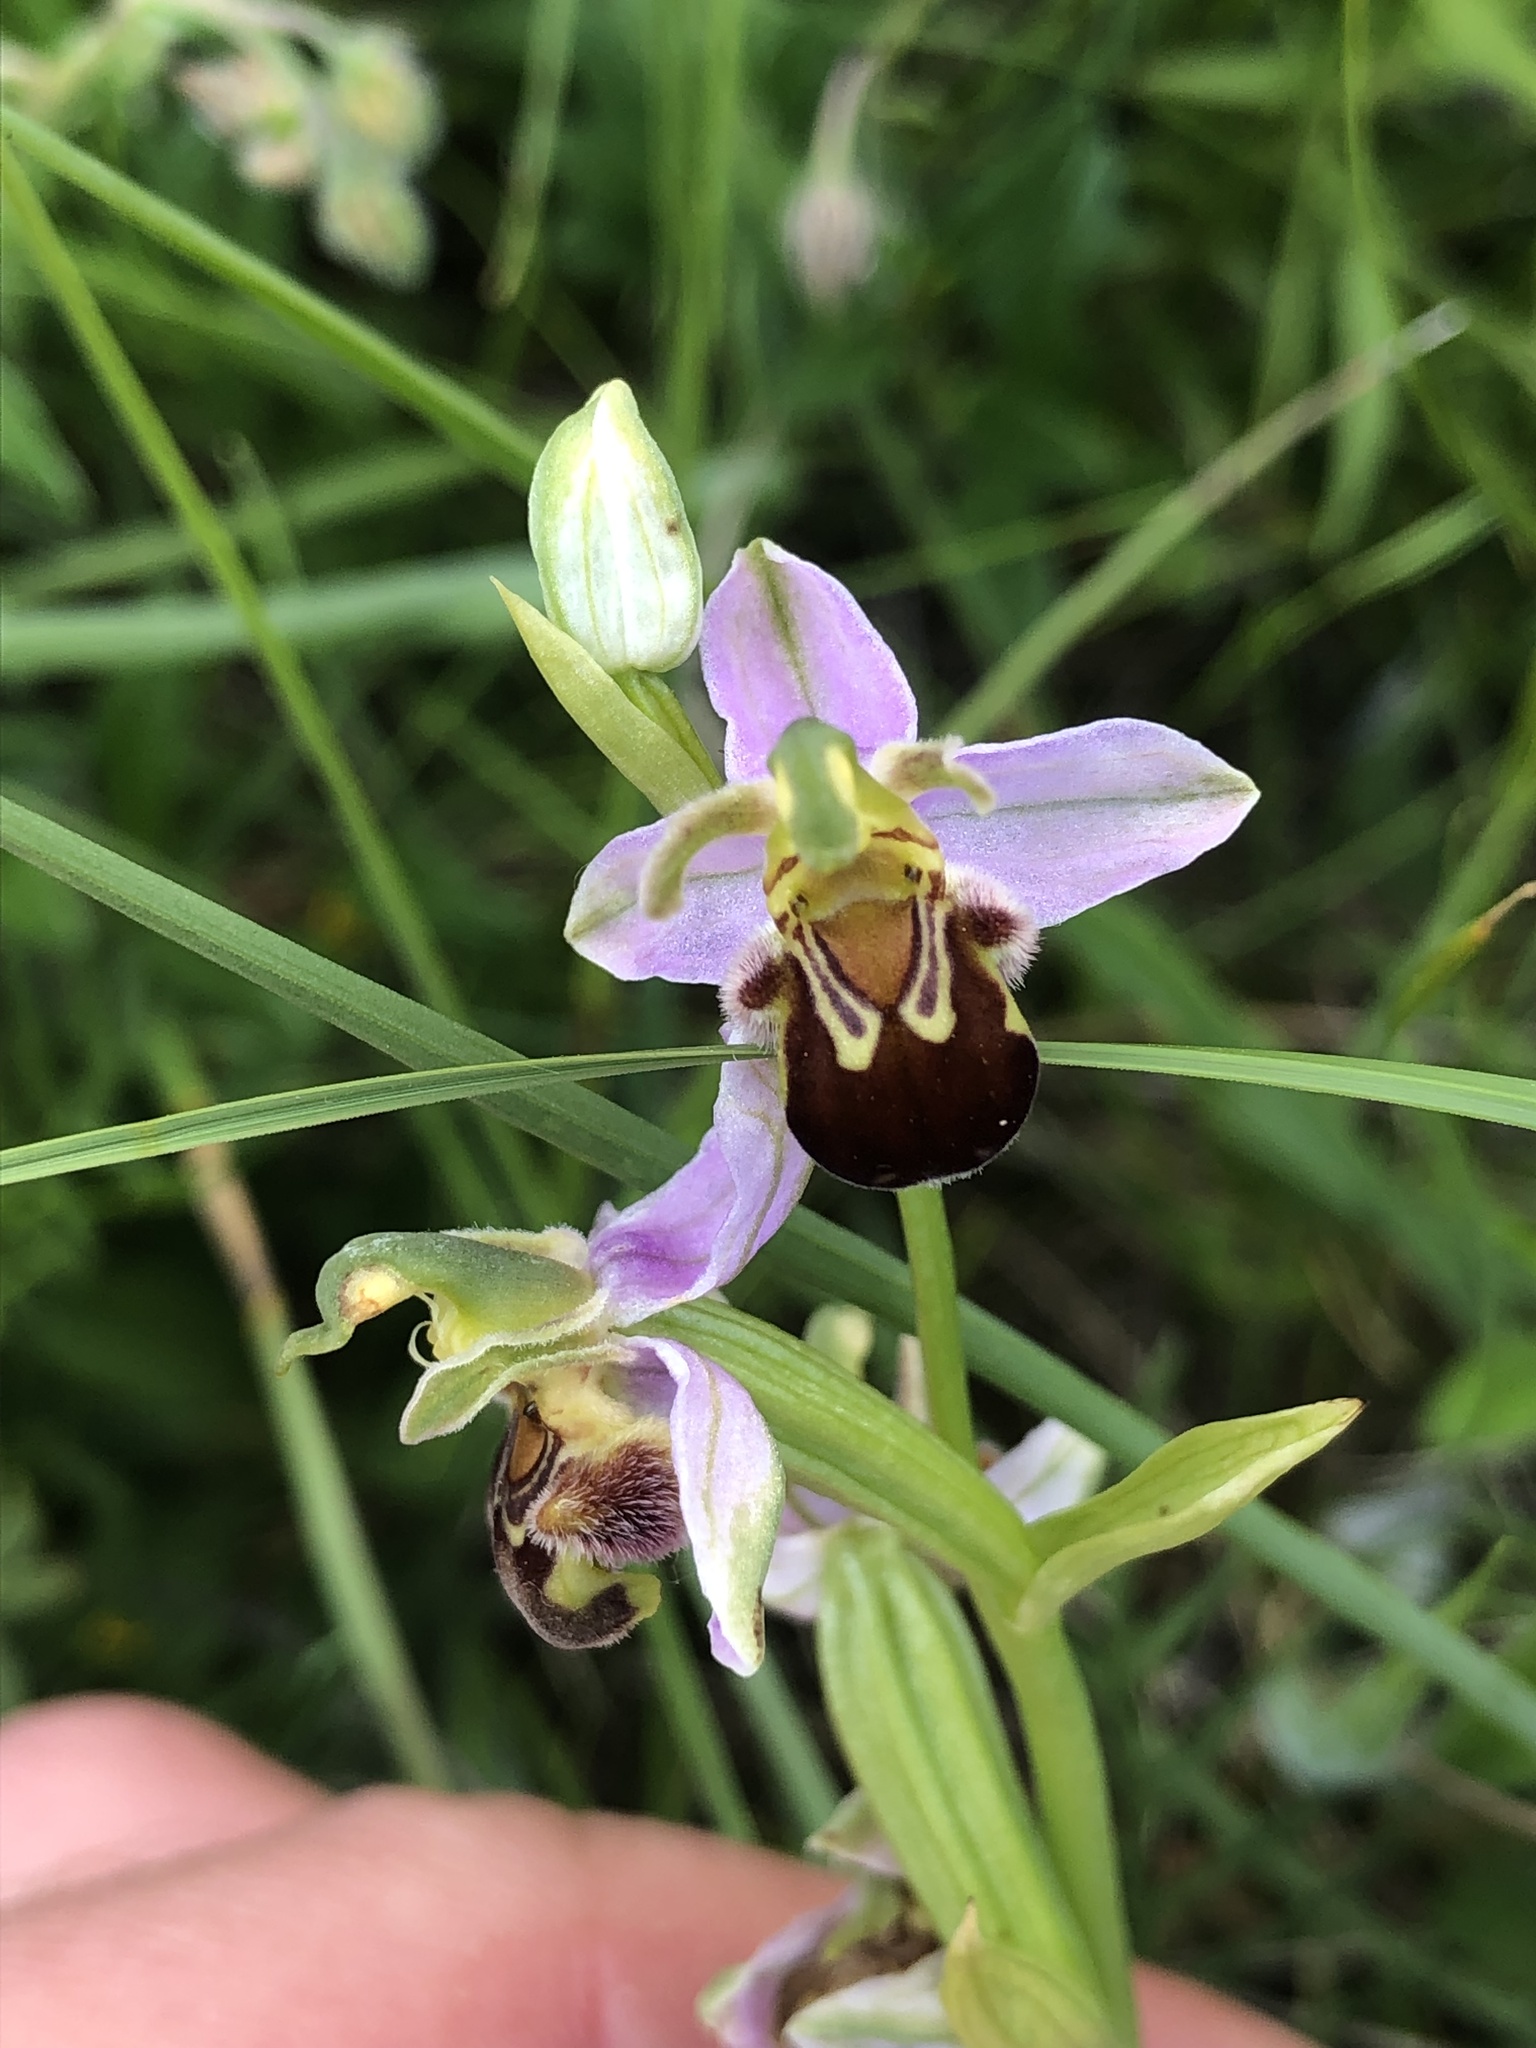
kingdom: Plantae
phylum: Tracheophyta
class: Liliopsida
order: Asparagales
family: Orchidaceae
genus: Ophrys
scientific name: Ophrys apifera
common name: Bee orchid
